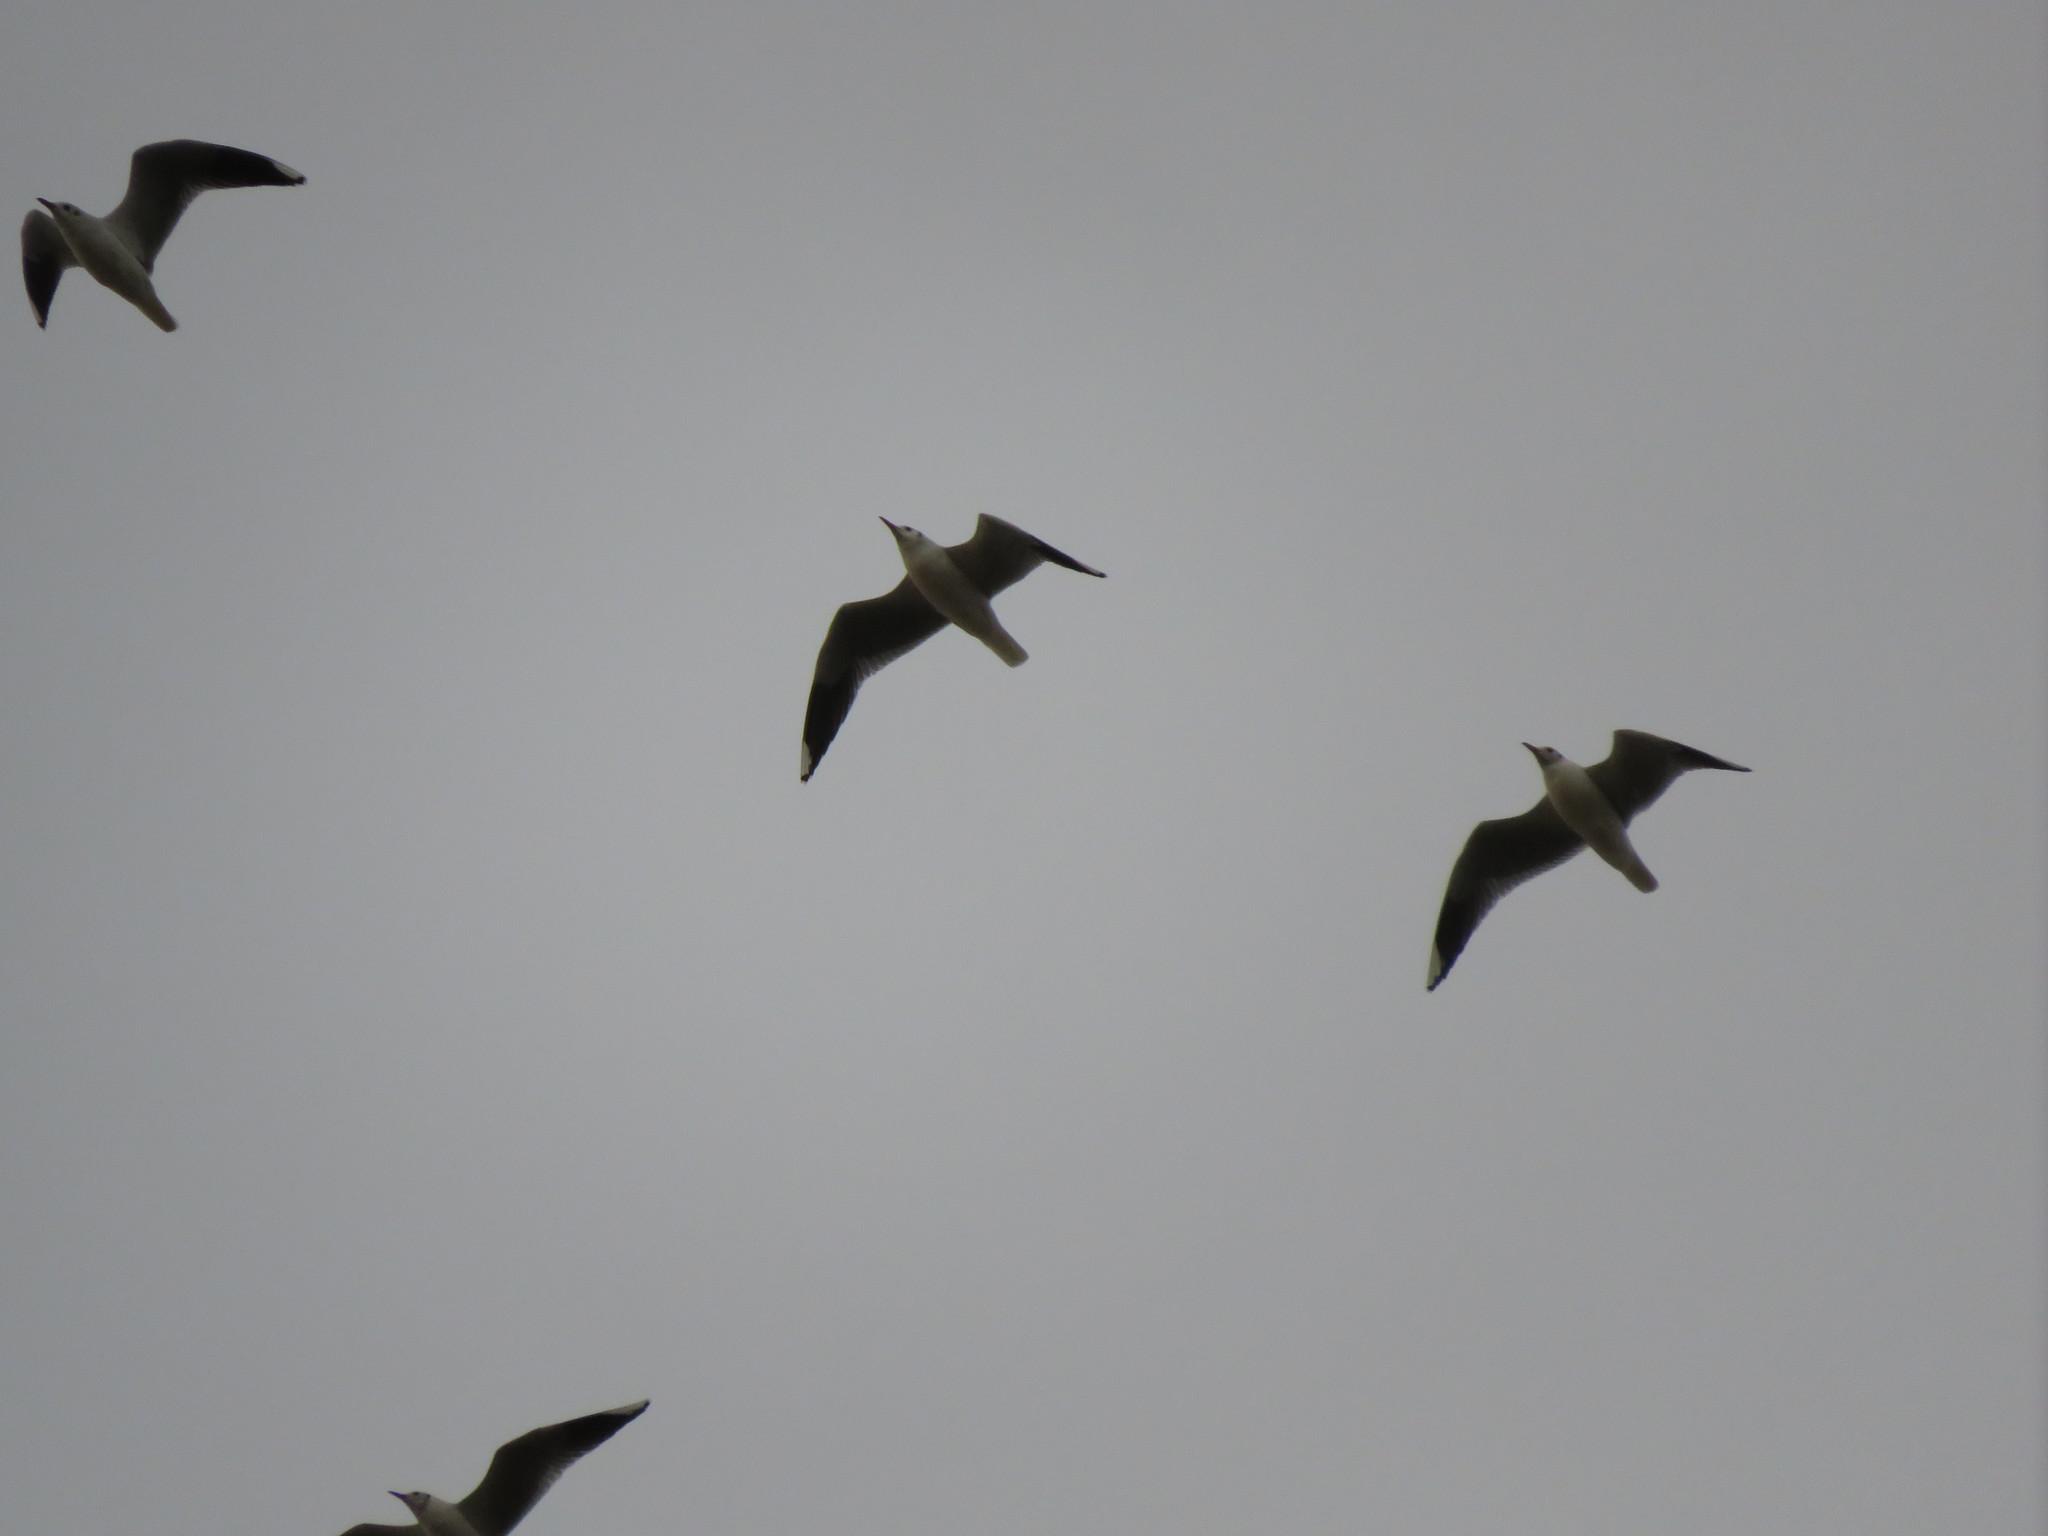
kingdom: Animalia
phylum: Chordata
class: Aves
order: Charadriiformes
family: Laridae
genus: Chroicocephalus
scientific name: Chroicocephalus maculipennis
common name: Brown-hooded gull
